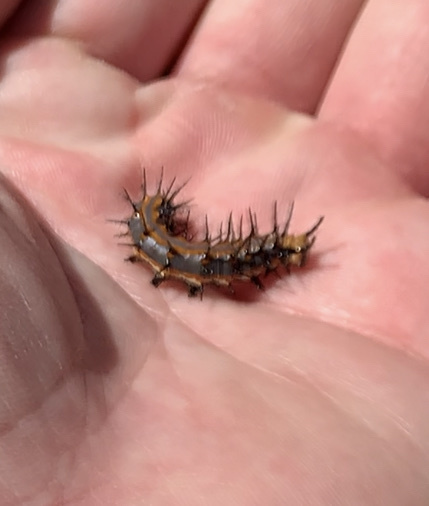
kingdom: Animalia
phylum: Arthropoda
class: Insecta
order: Lepidoptera
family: Nymphalidae
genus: Dione
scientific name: Dione vanillae
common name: Gulf fritillary
